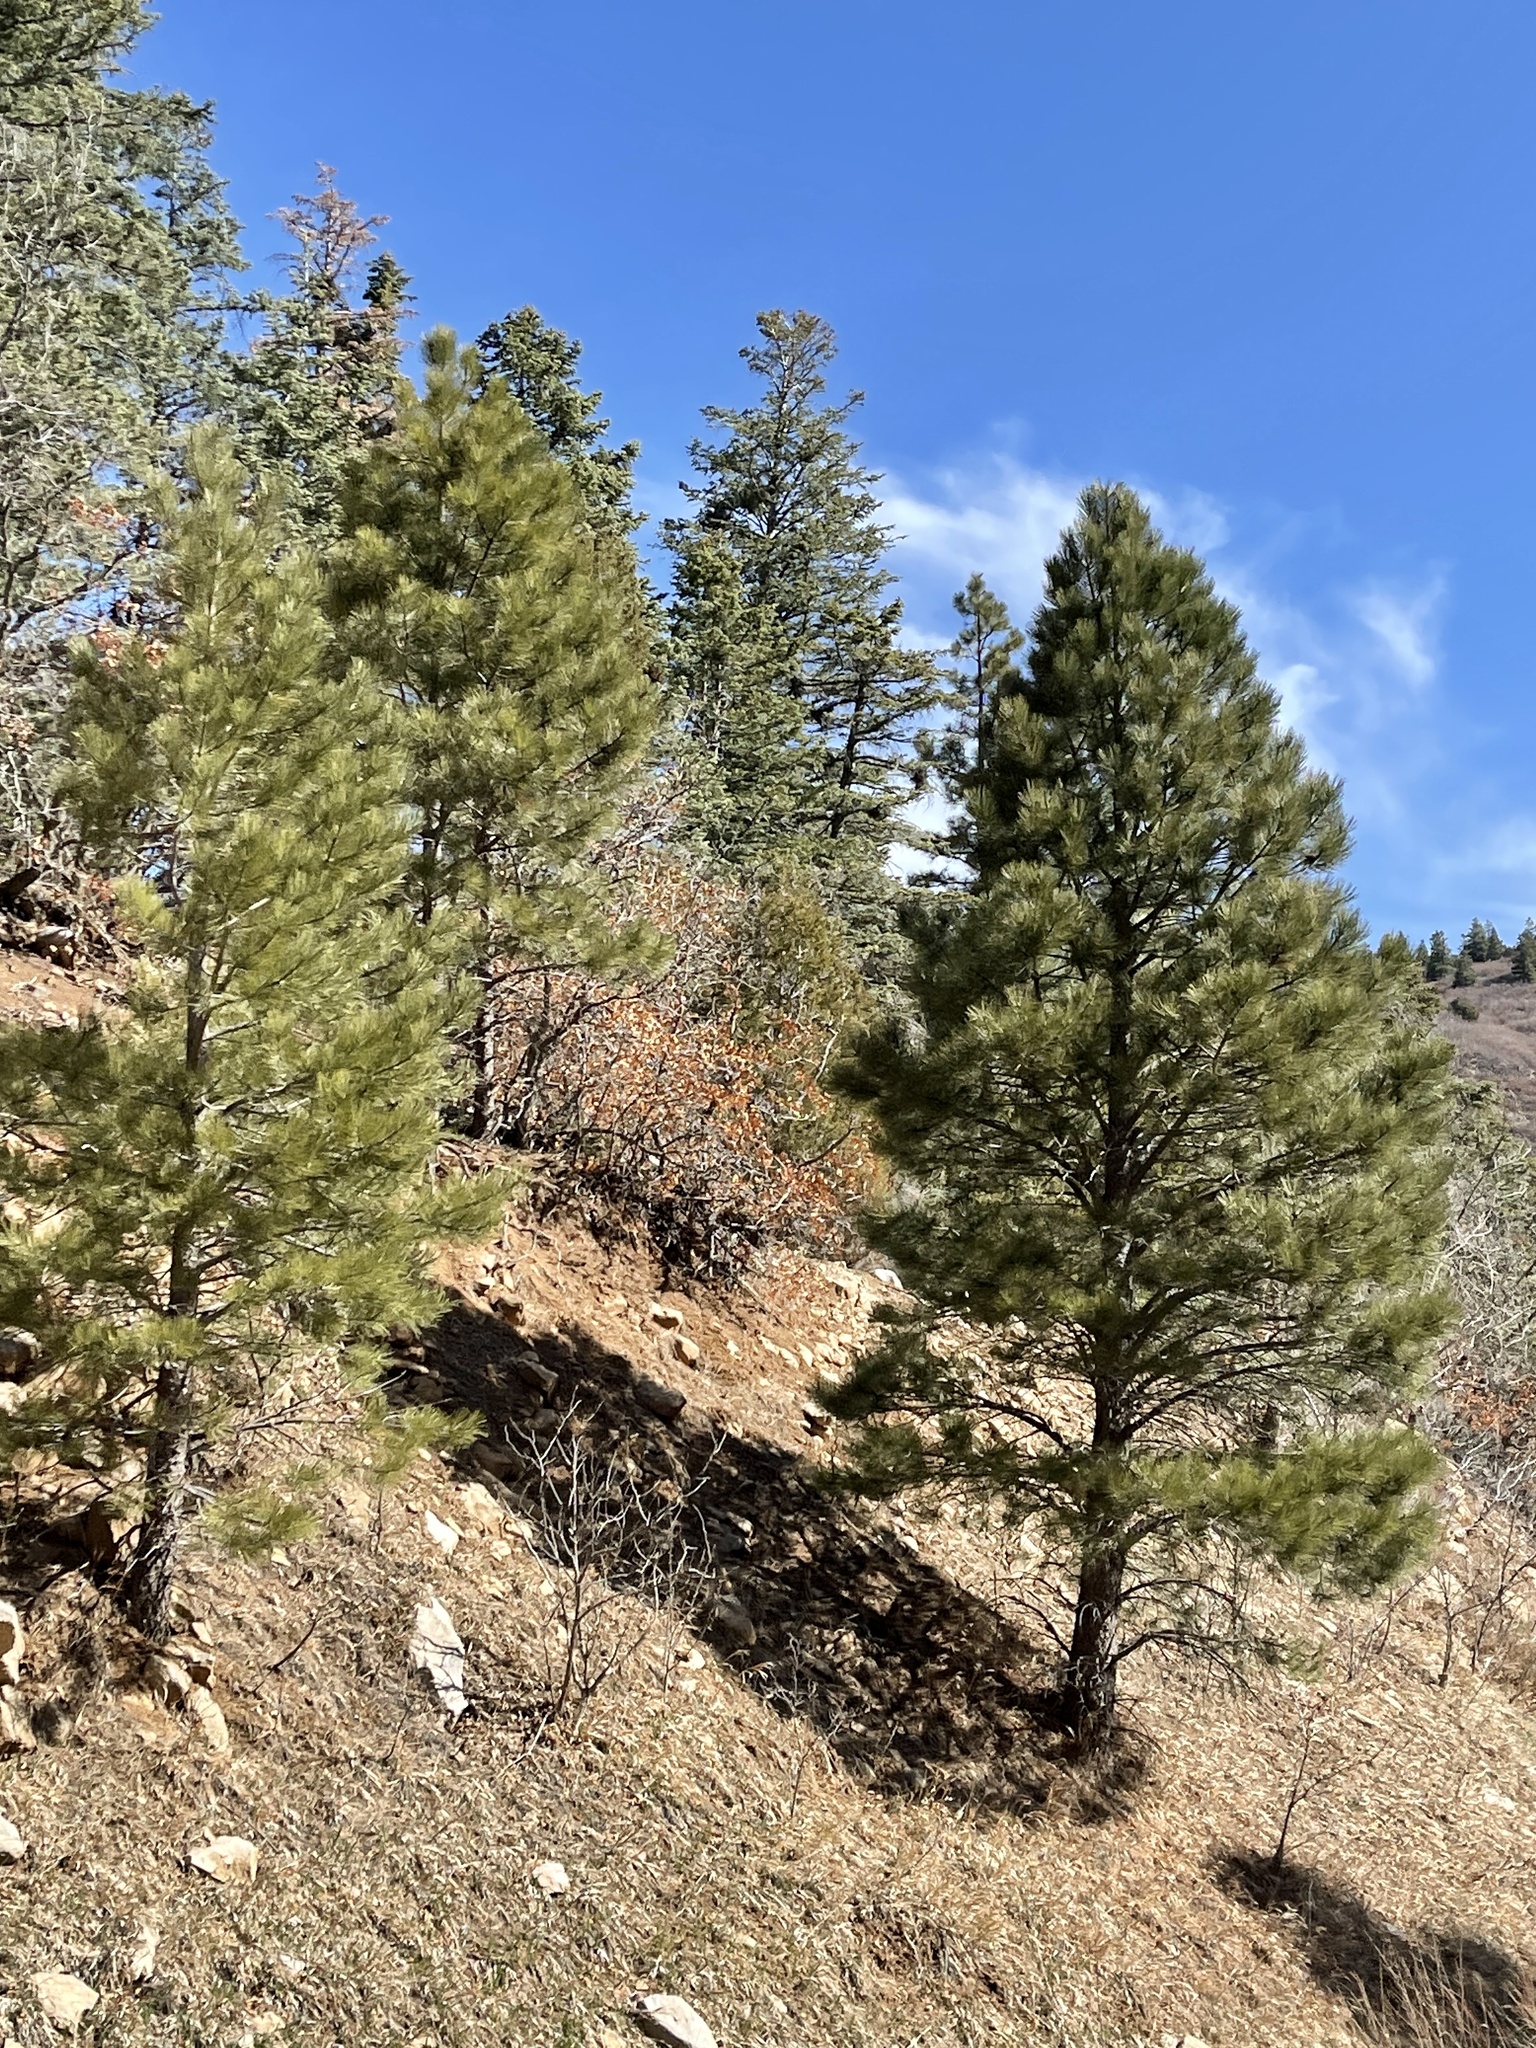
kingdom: Plantae
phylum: Tracheophyta
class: Pinopsida
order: Pinales
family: Pinaceae
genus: Pinus
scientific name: Pinus ponderosa
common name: Western yellow-pine
